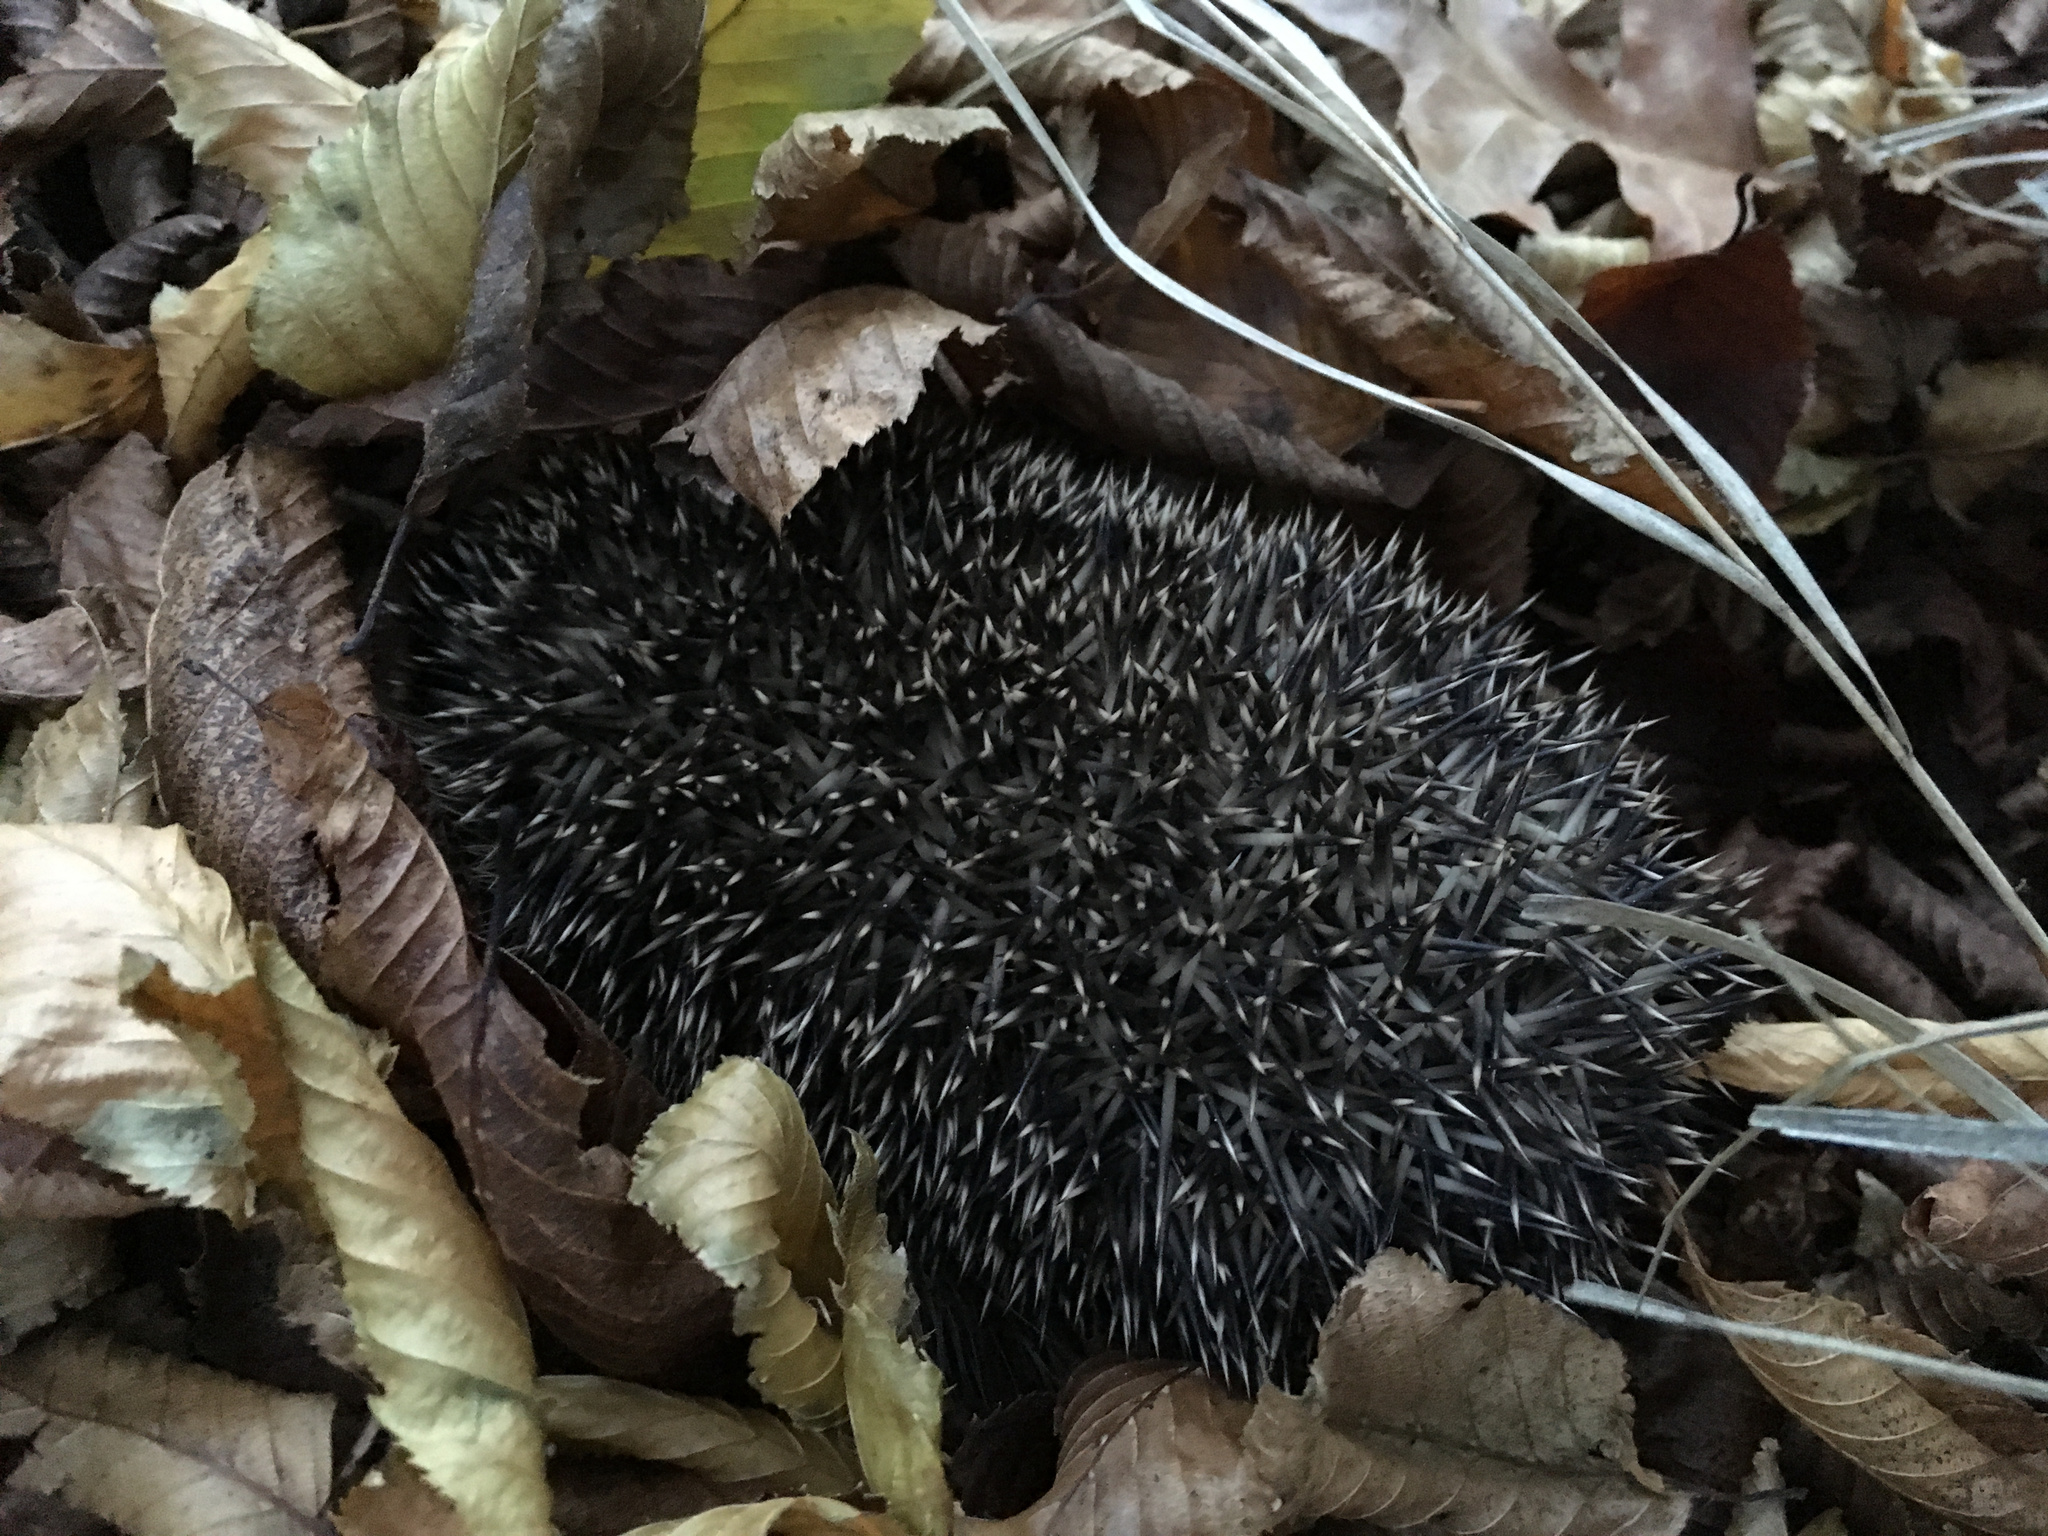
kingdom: Animalia
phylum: Chordata
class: Mammalia
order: Erinaceomorpha
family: Erinaceidae
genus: Erinaceus
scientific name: Erinaceus europaeus
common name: West european hedgehog
